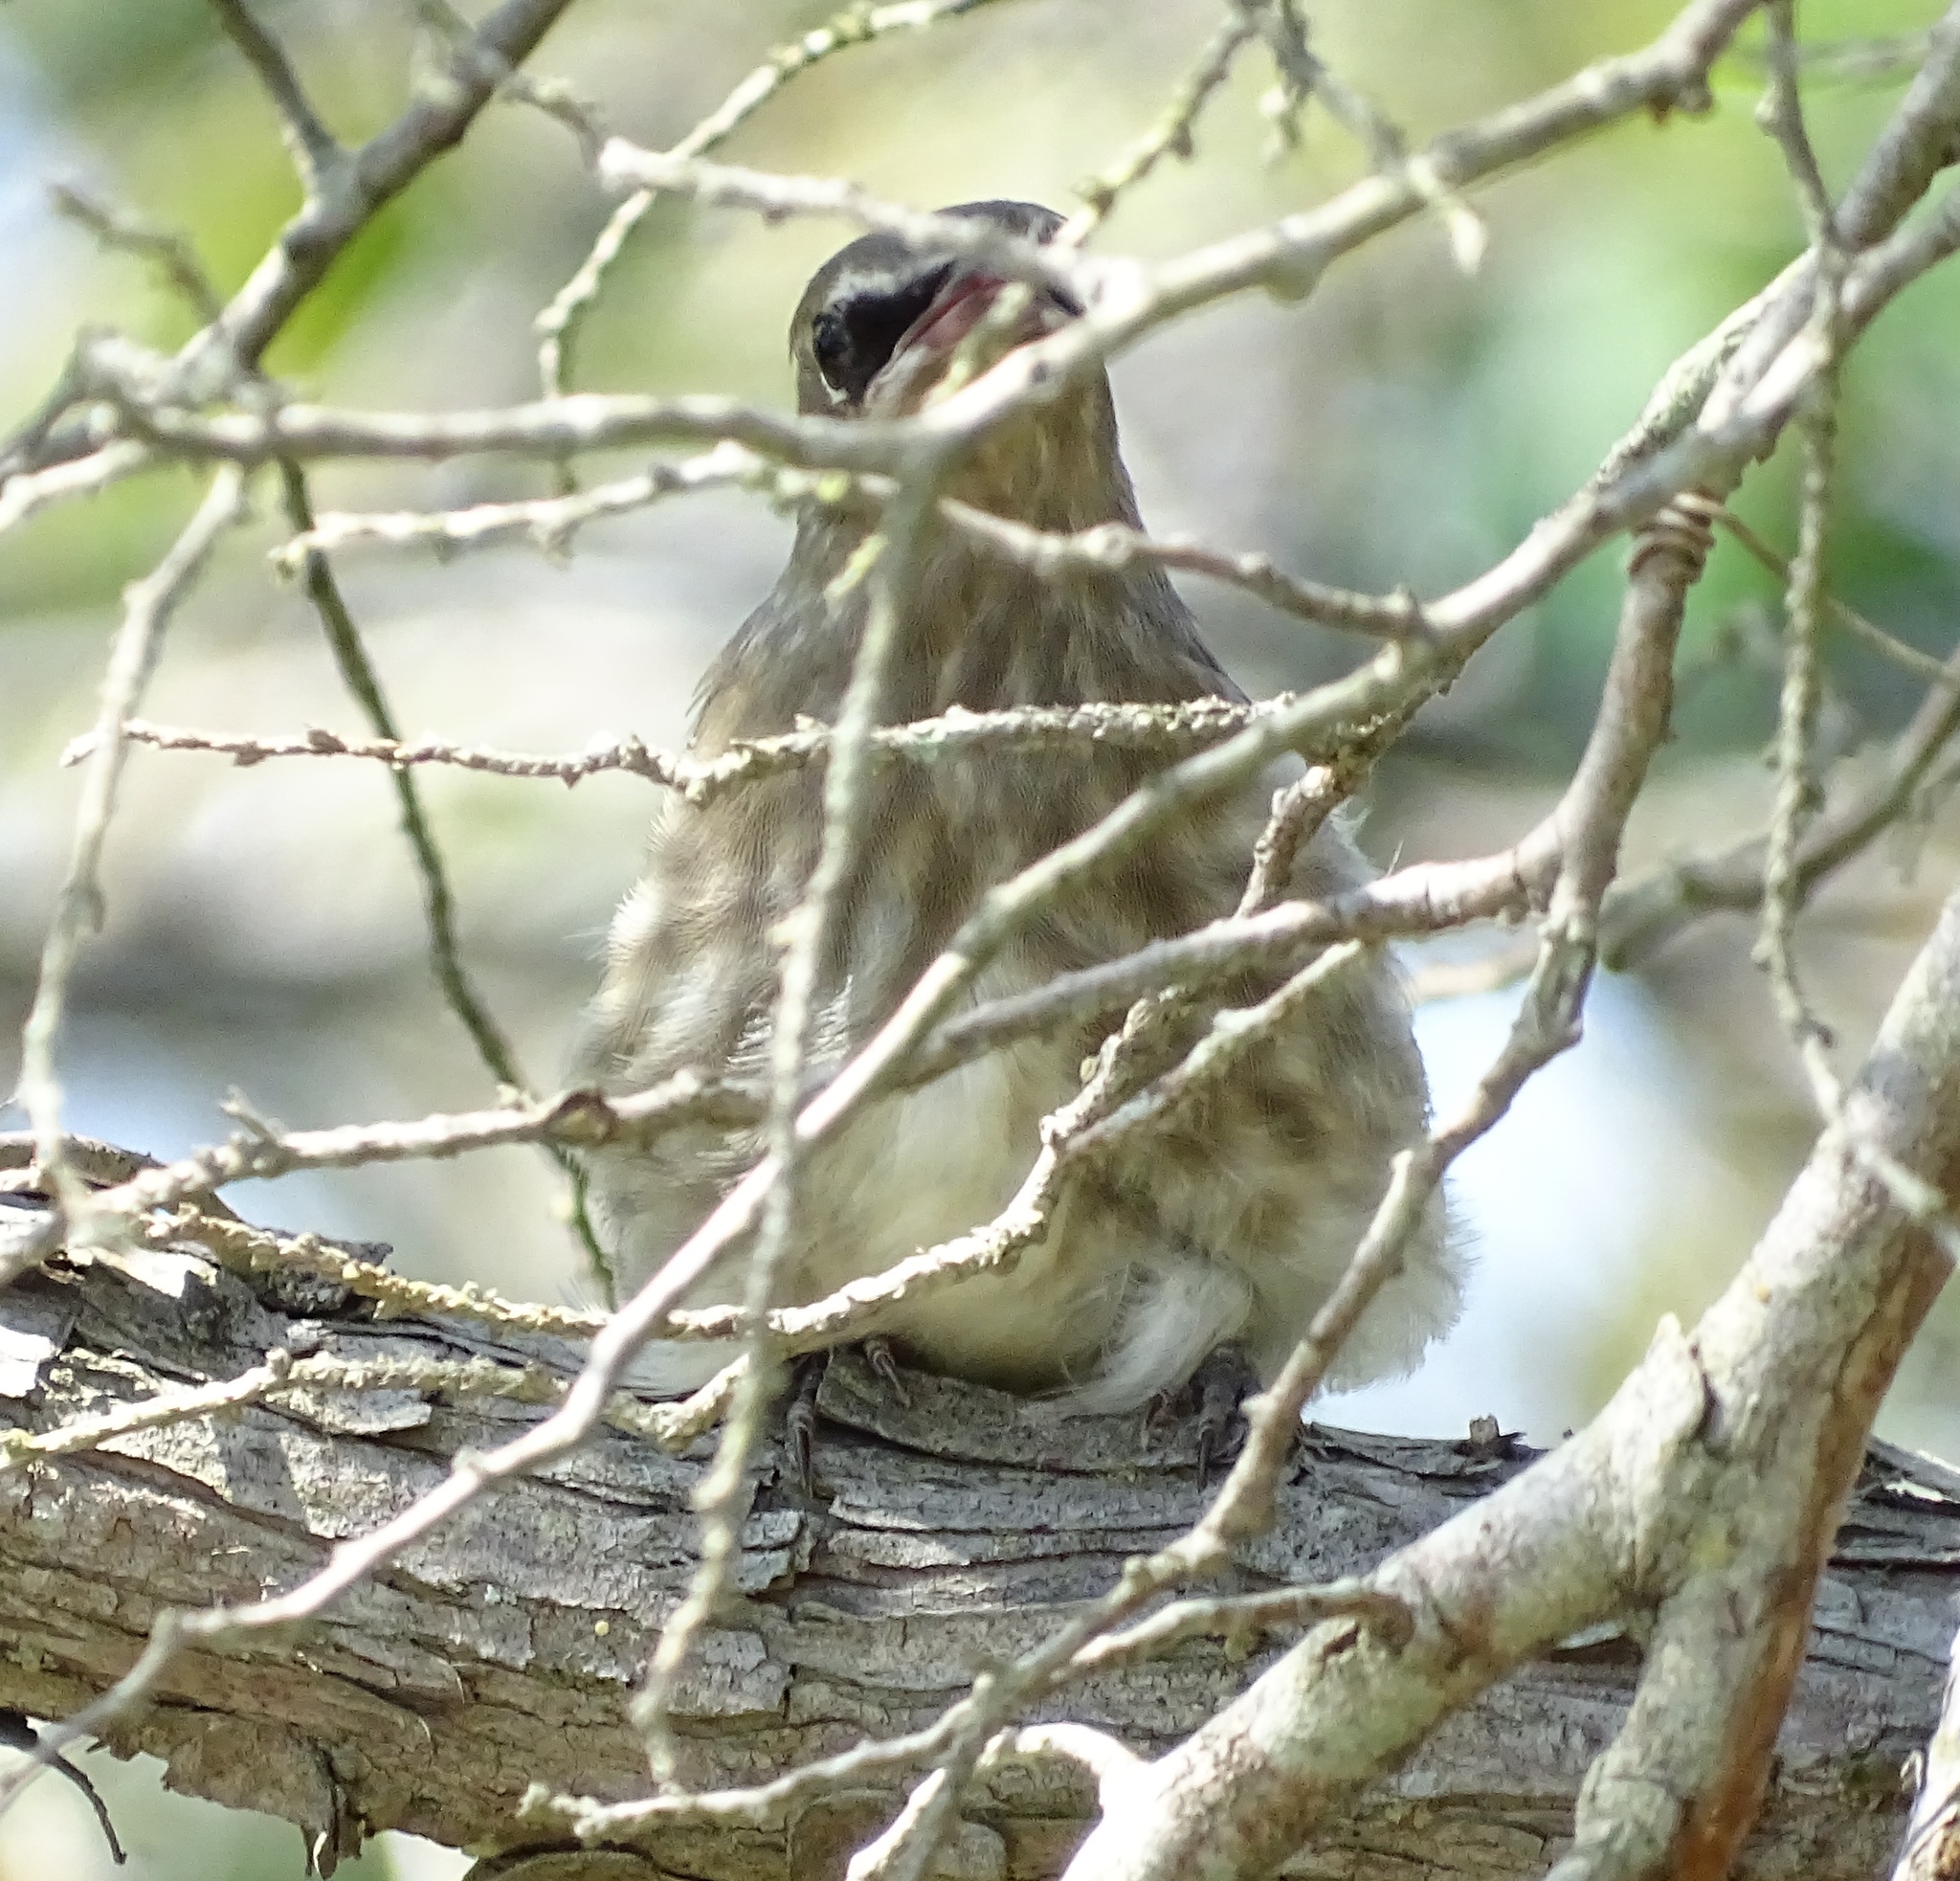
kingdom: Animalia
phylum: Chordata
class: Aves
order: Passeriformes
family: Bombycillidae
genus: Bombycilla
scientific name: Bombycilla cedrorum
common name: Cedar waxwing
